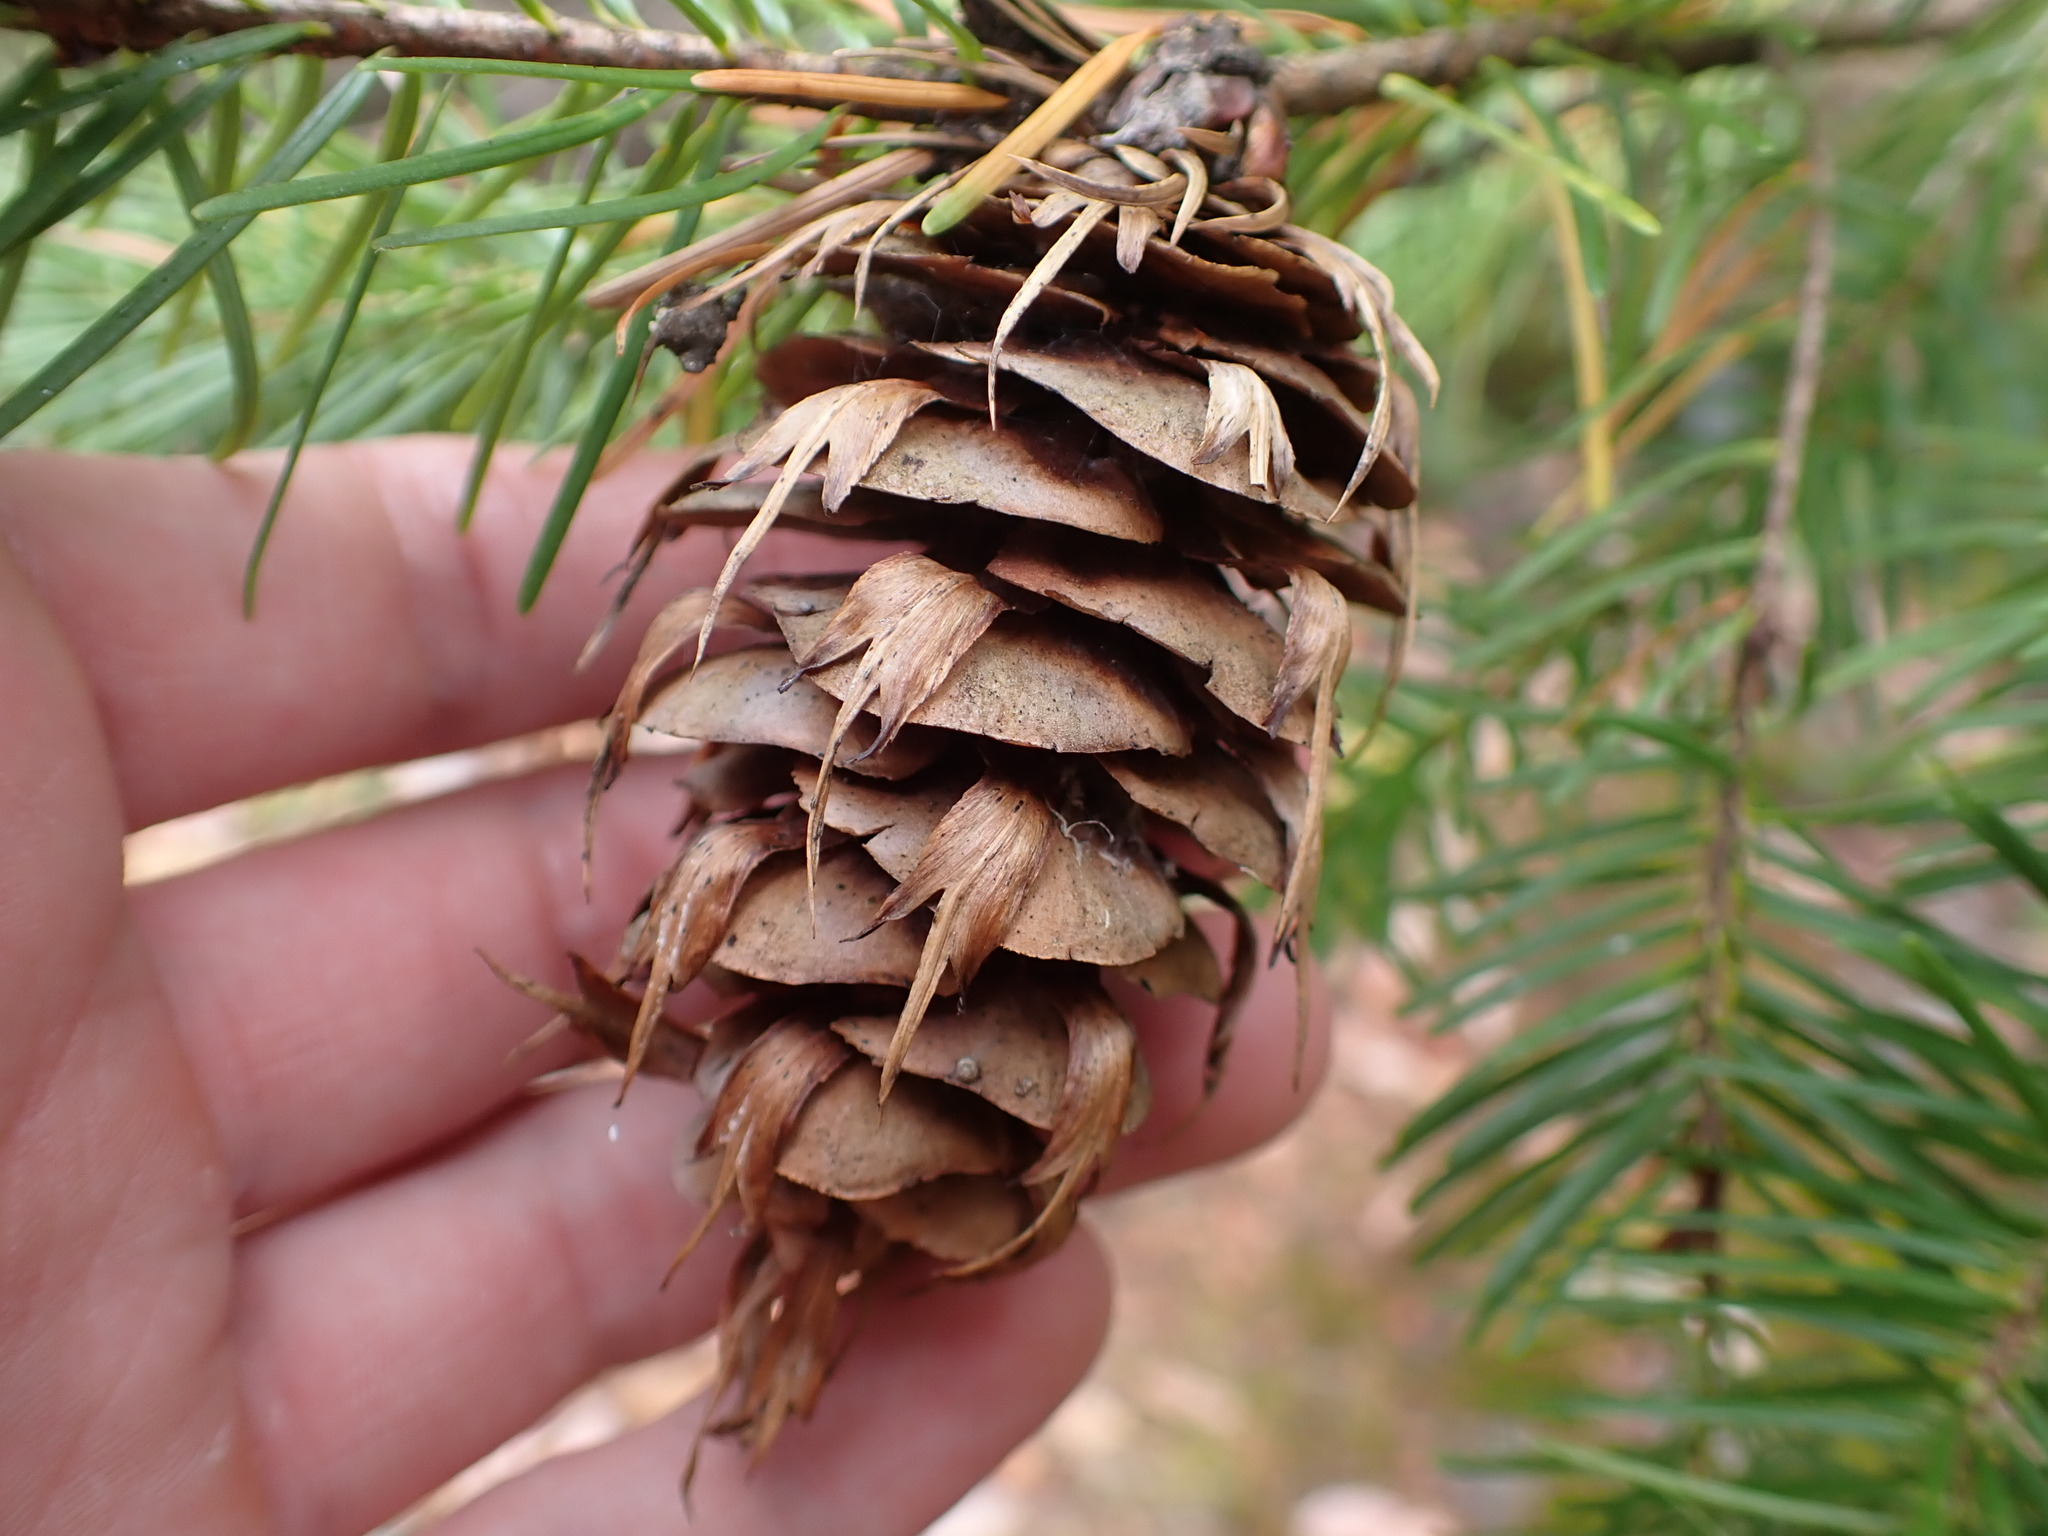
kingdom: Plantae
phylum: Tracheophyta
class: Pinopsida
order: Pinales
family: Pinaceae
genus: Pseudotsuga
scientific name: Pseudotsuga menziesii
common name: Douglas fir
